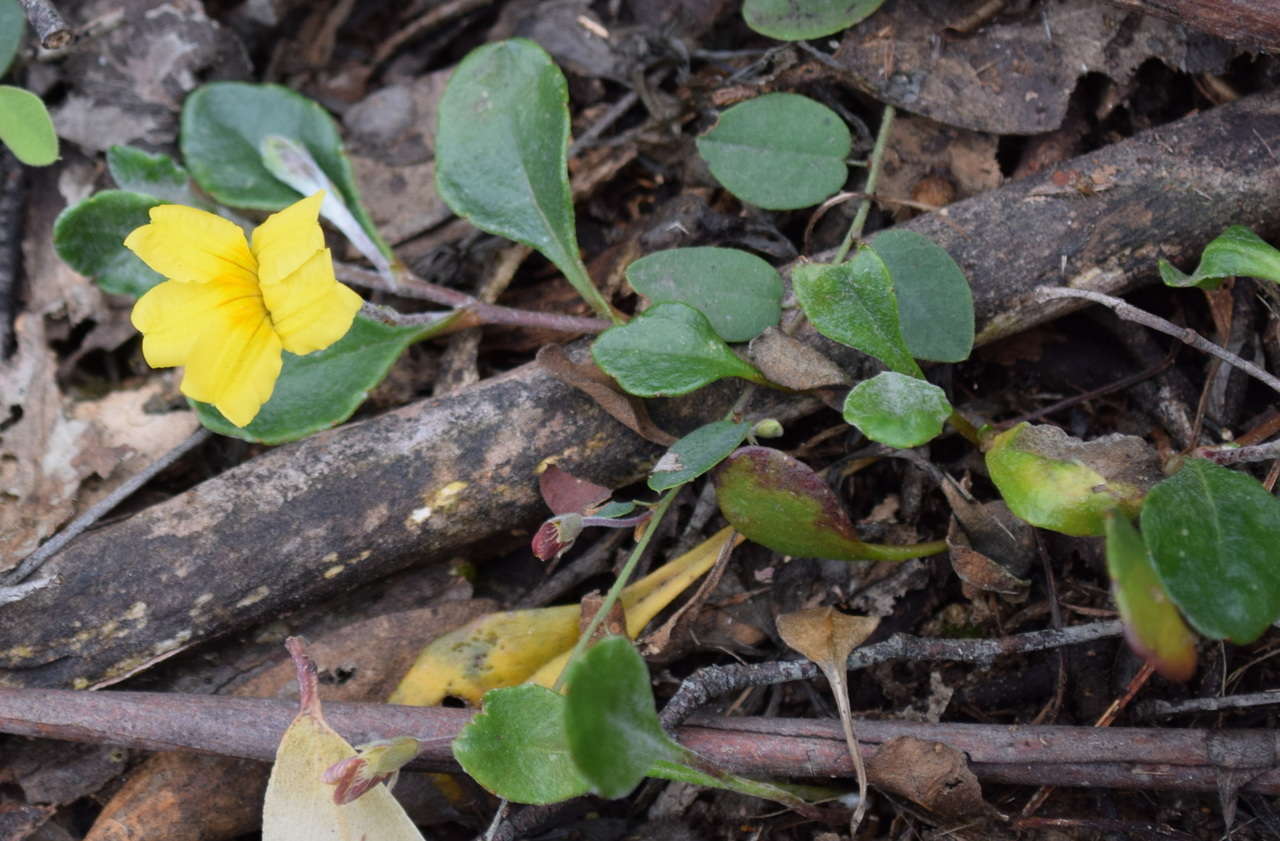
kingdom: Plantae
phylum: Tracheophyta
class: Magnoliopsida
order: Asterales
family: Goodeniaceae
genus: Goodenia
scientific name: Goodenia lanata
